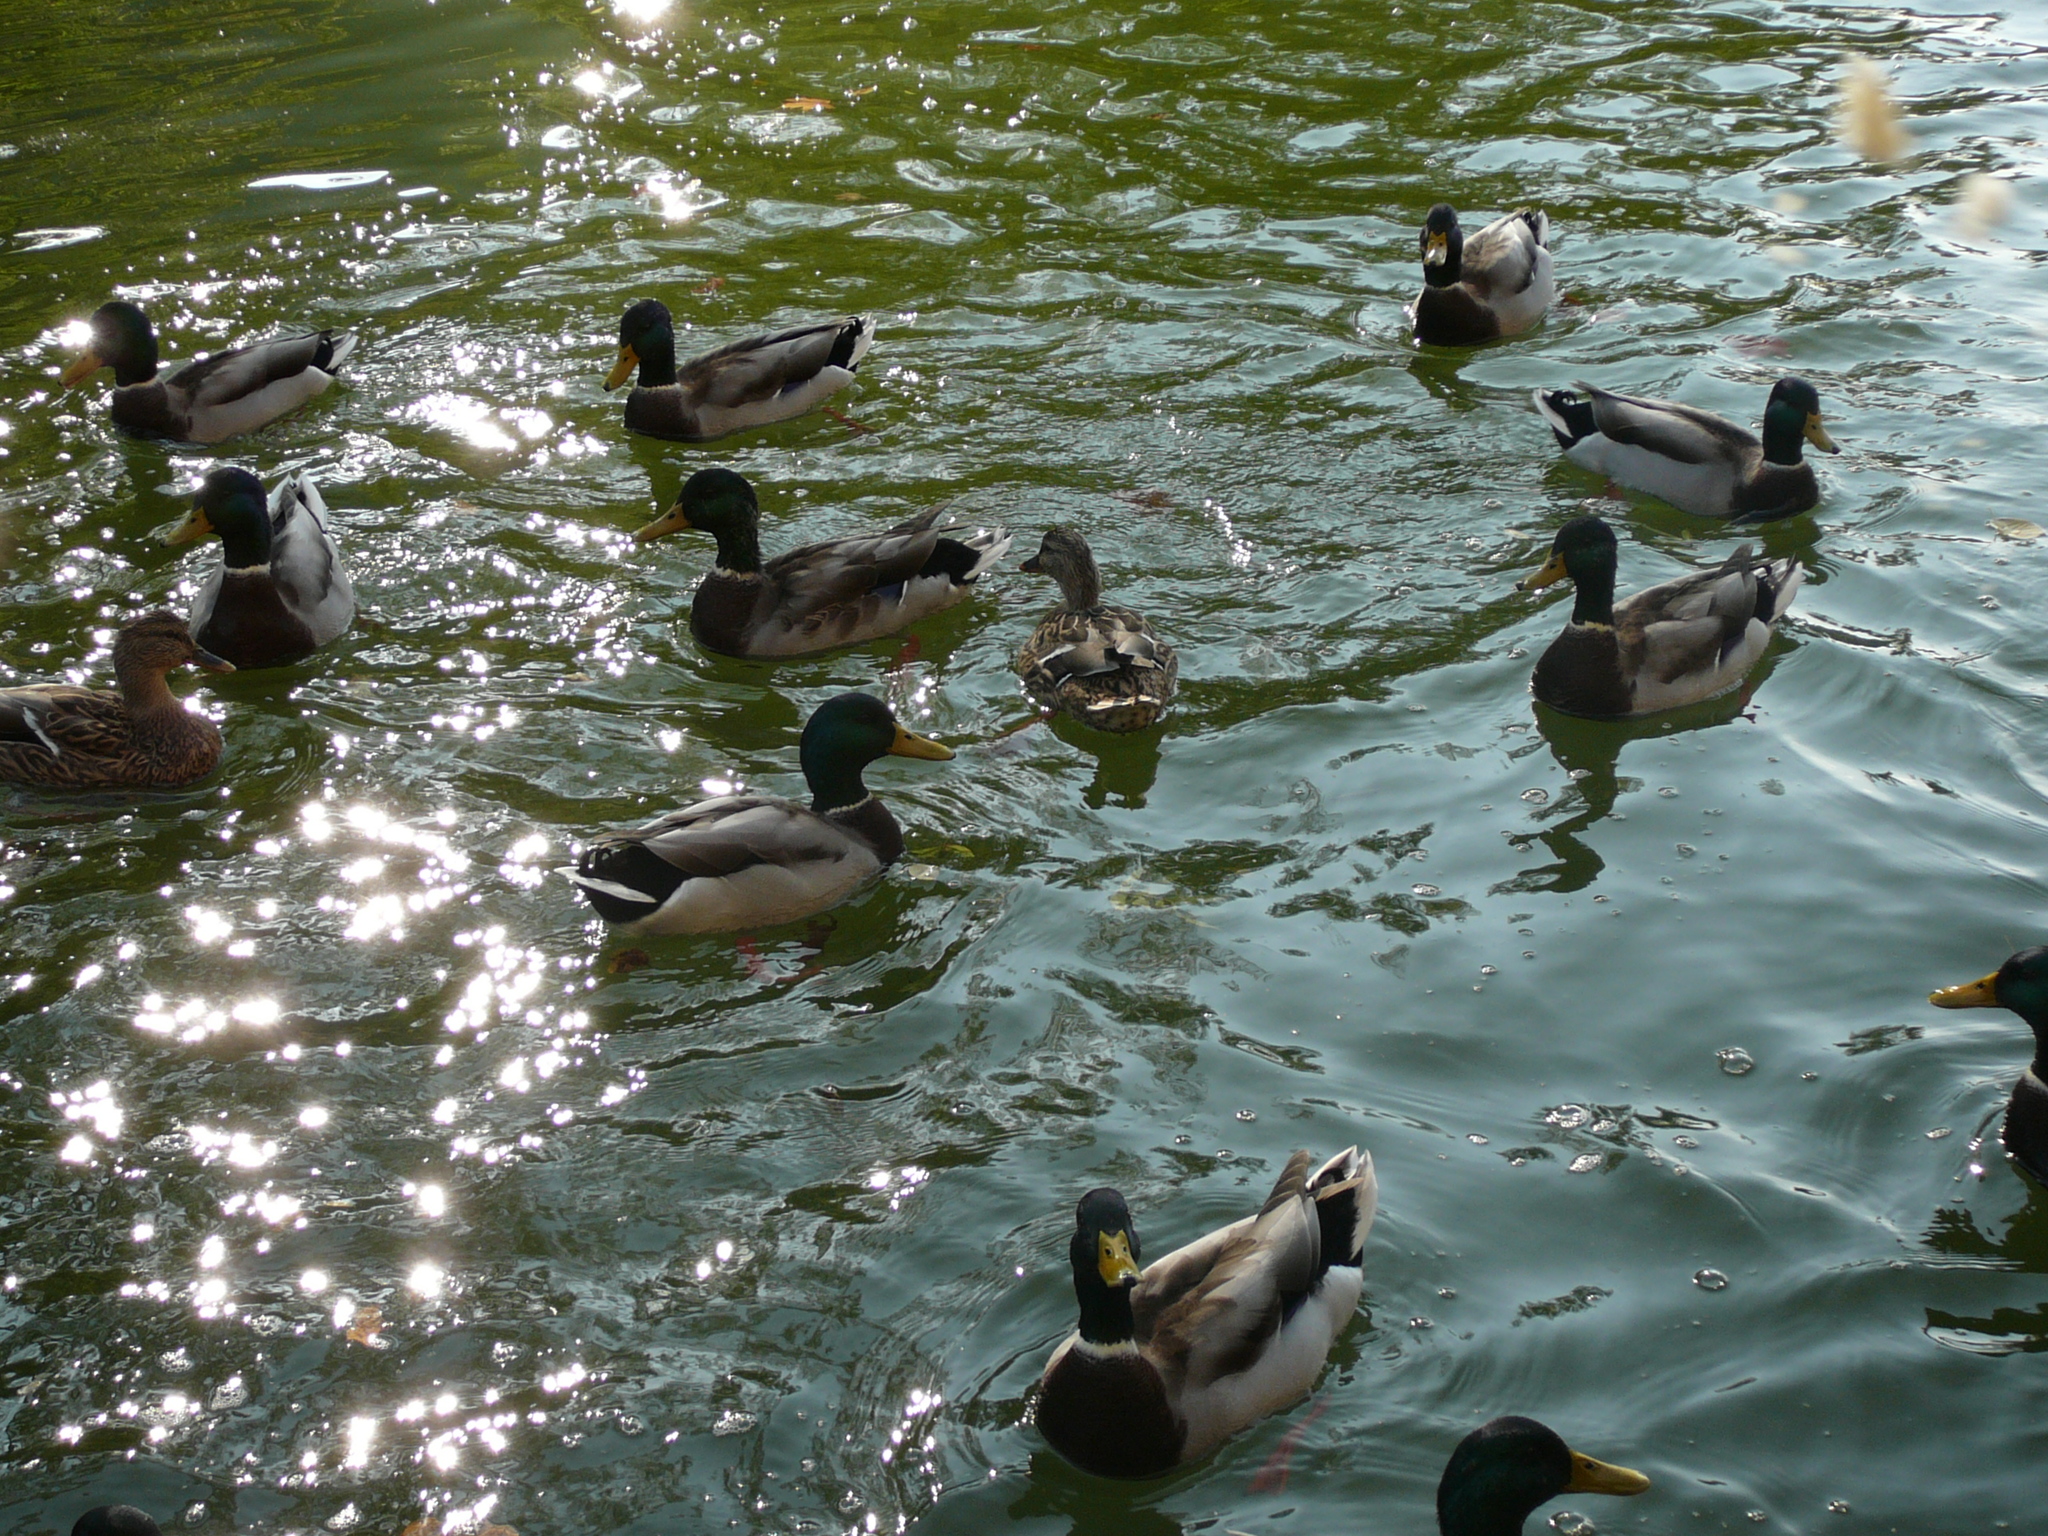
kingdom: Animalia
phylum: Chordata
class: Aves
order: Anseriformes
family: Anatidae
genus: Anas
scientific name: Anas platyrhynchos
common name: Mallard
